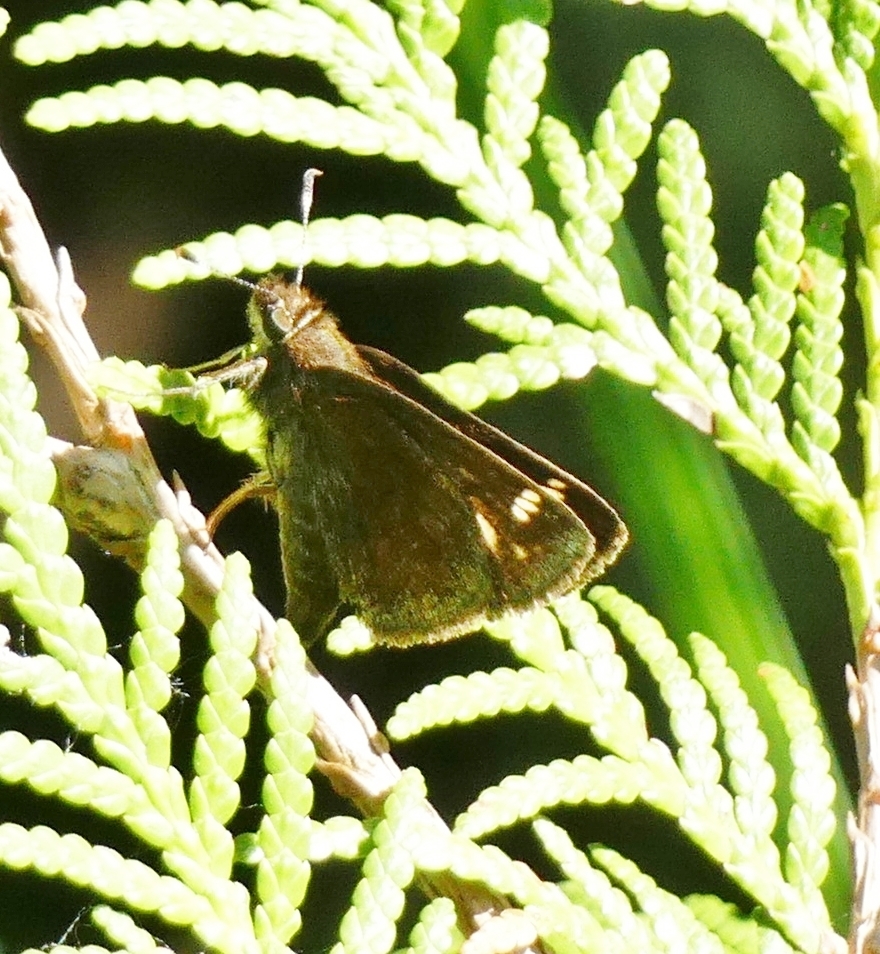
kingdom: Animalia
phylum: Arthropoda
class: Insecta
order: Lepidoptera
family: Hesperiidae
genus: Lon
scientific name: Lon hobomok
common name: Hobomok skipper
